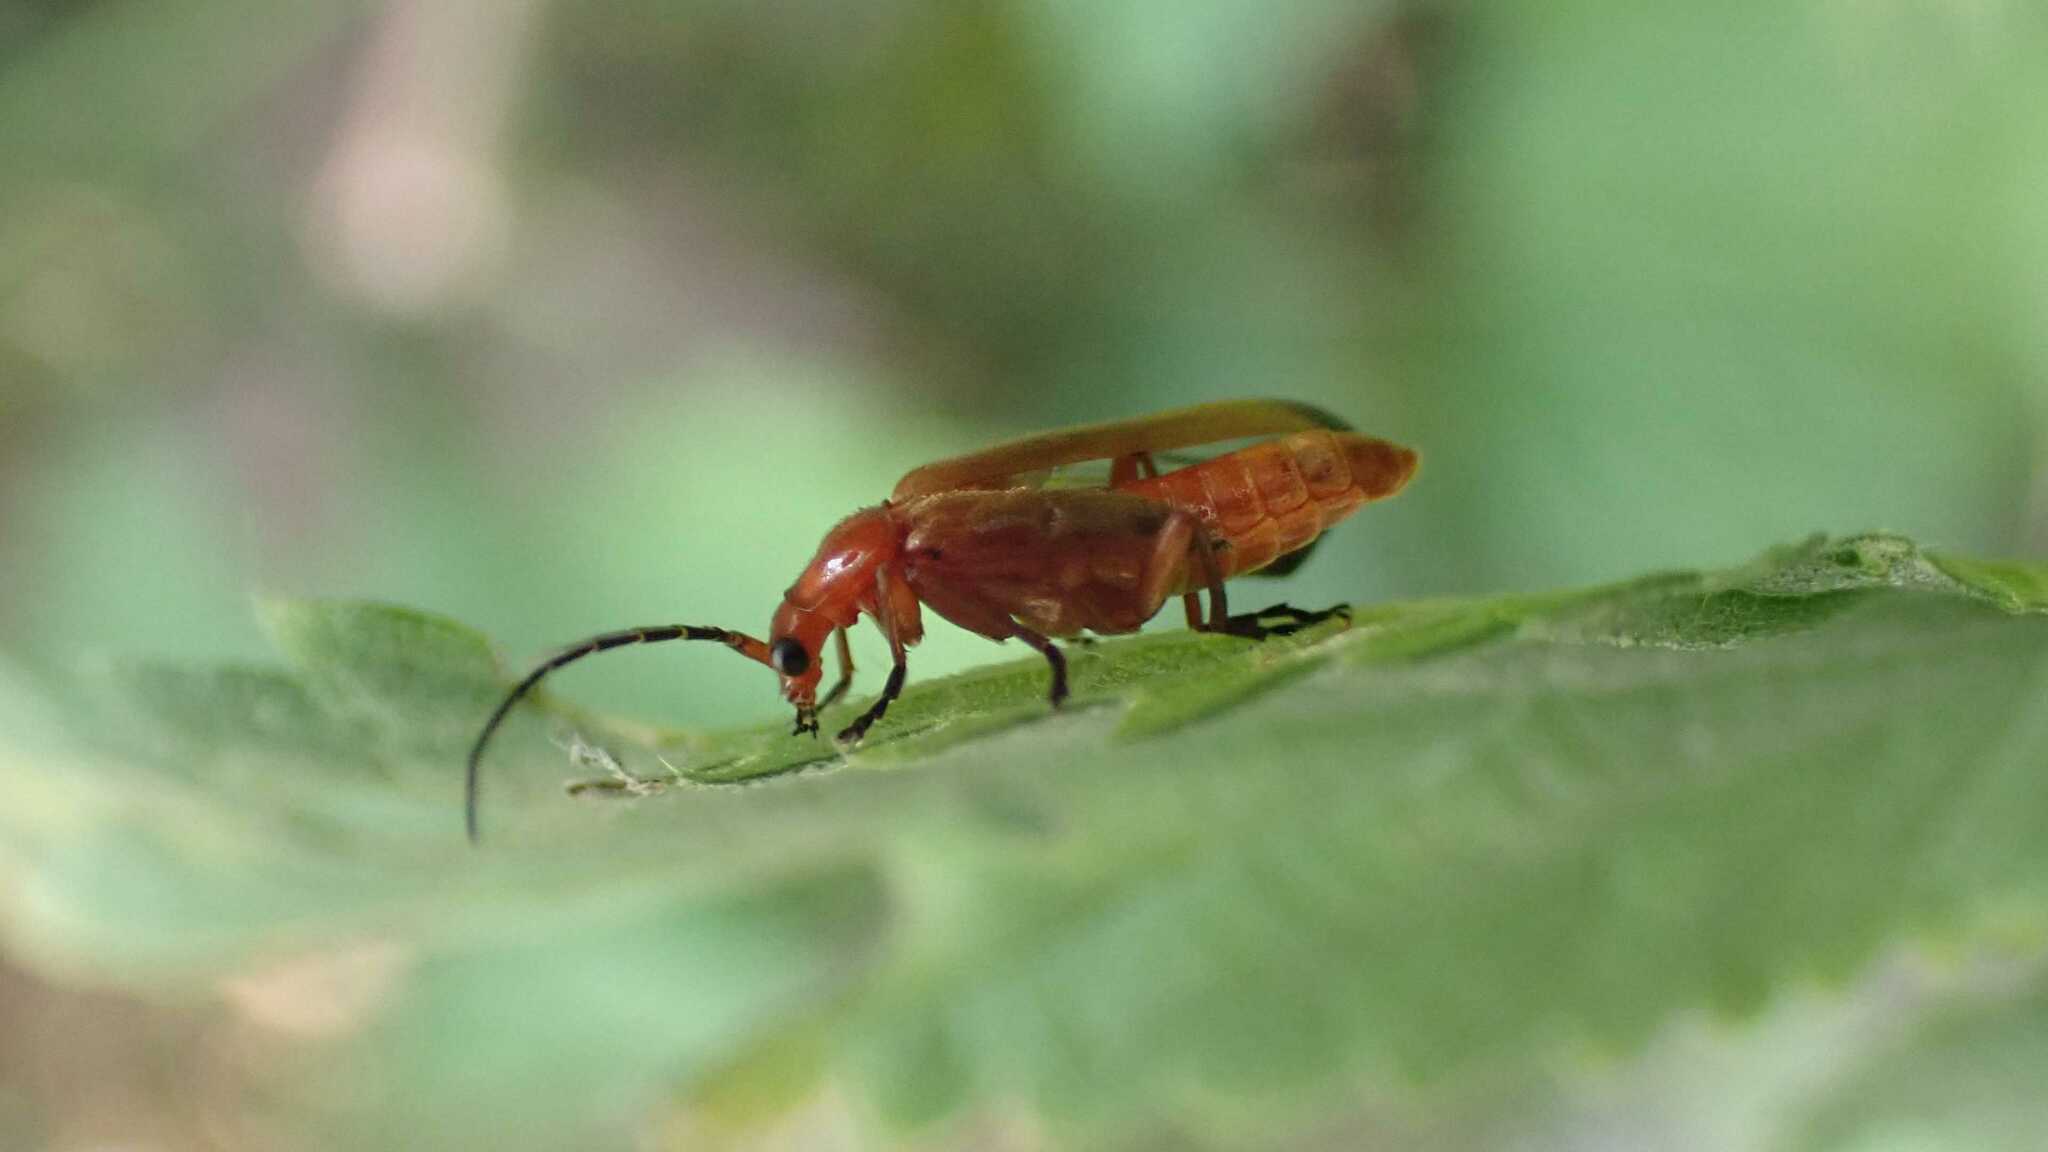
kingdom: Animalia
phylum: Arthropoda
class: Insecta
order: Coleoptera
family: Cantharidae
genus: Rhagonycha
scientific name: Rhagonycha fulva
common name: Common red soldier beetle
